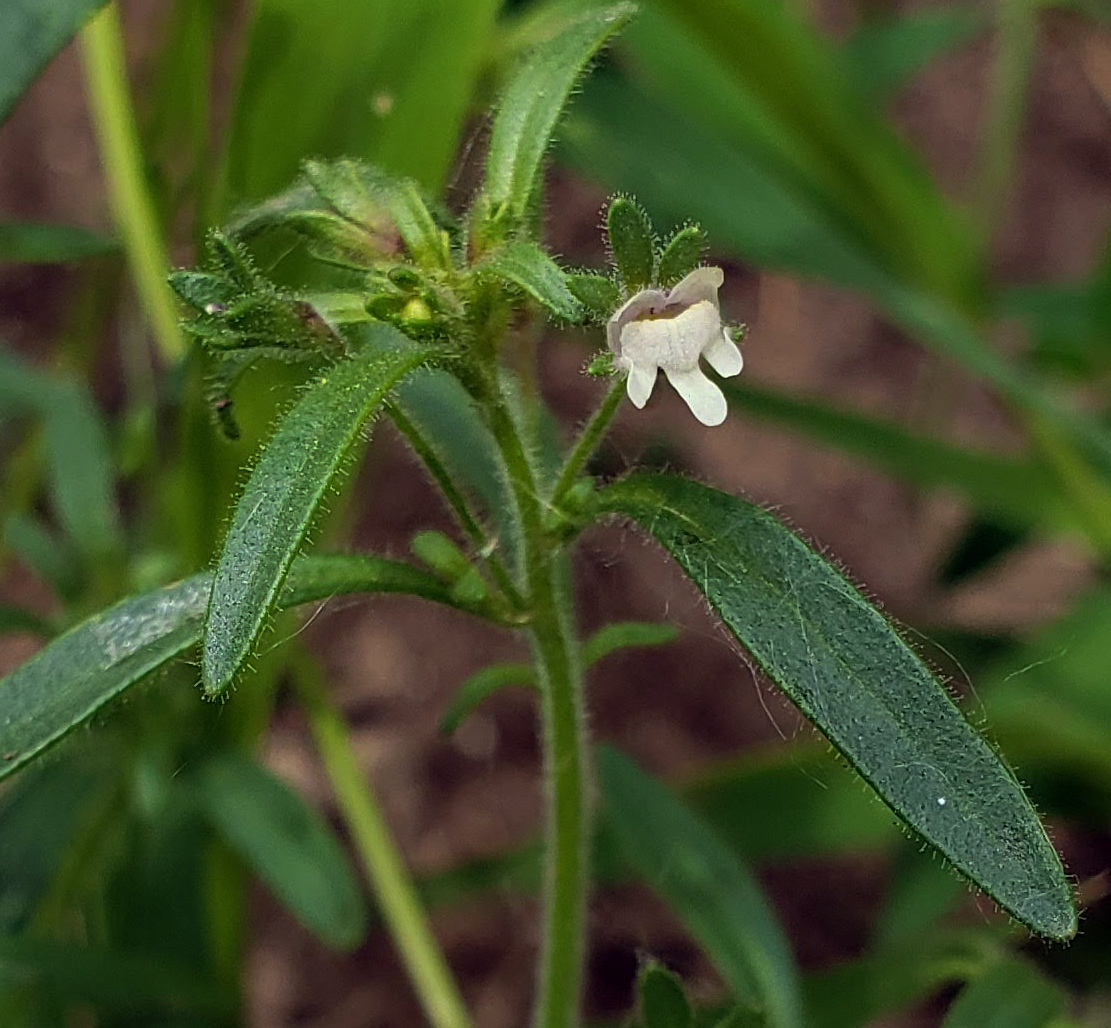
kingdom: Plantae
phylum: Tracheophyta
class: Magnoliopsida
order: Lamiales
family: Plantaginaceae
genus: Chaenorhinum
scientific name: Chaenorhinum minus
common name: Dwarf snapdragon
